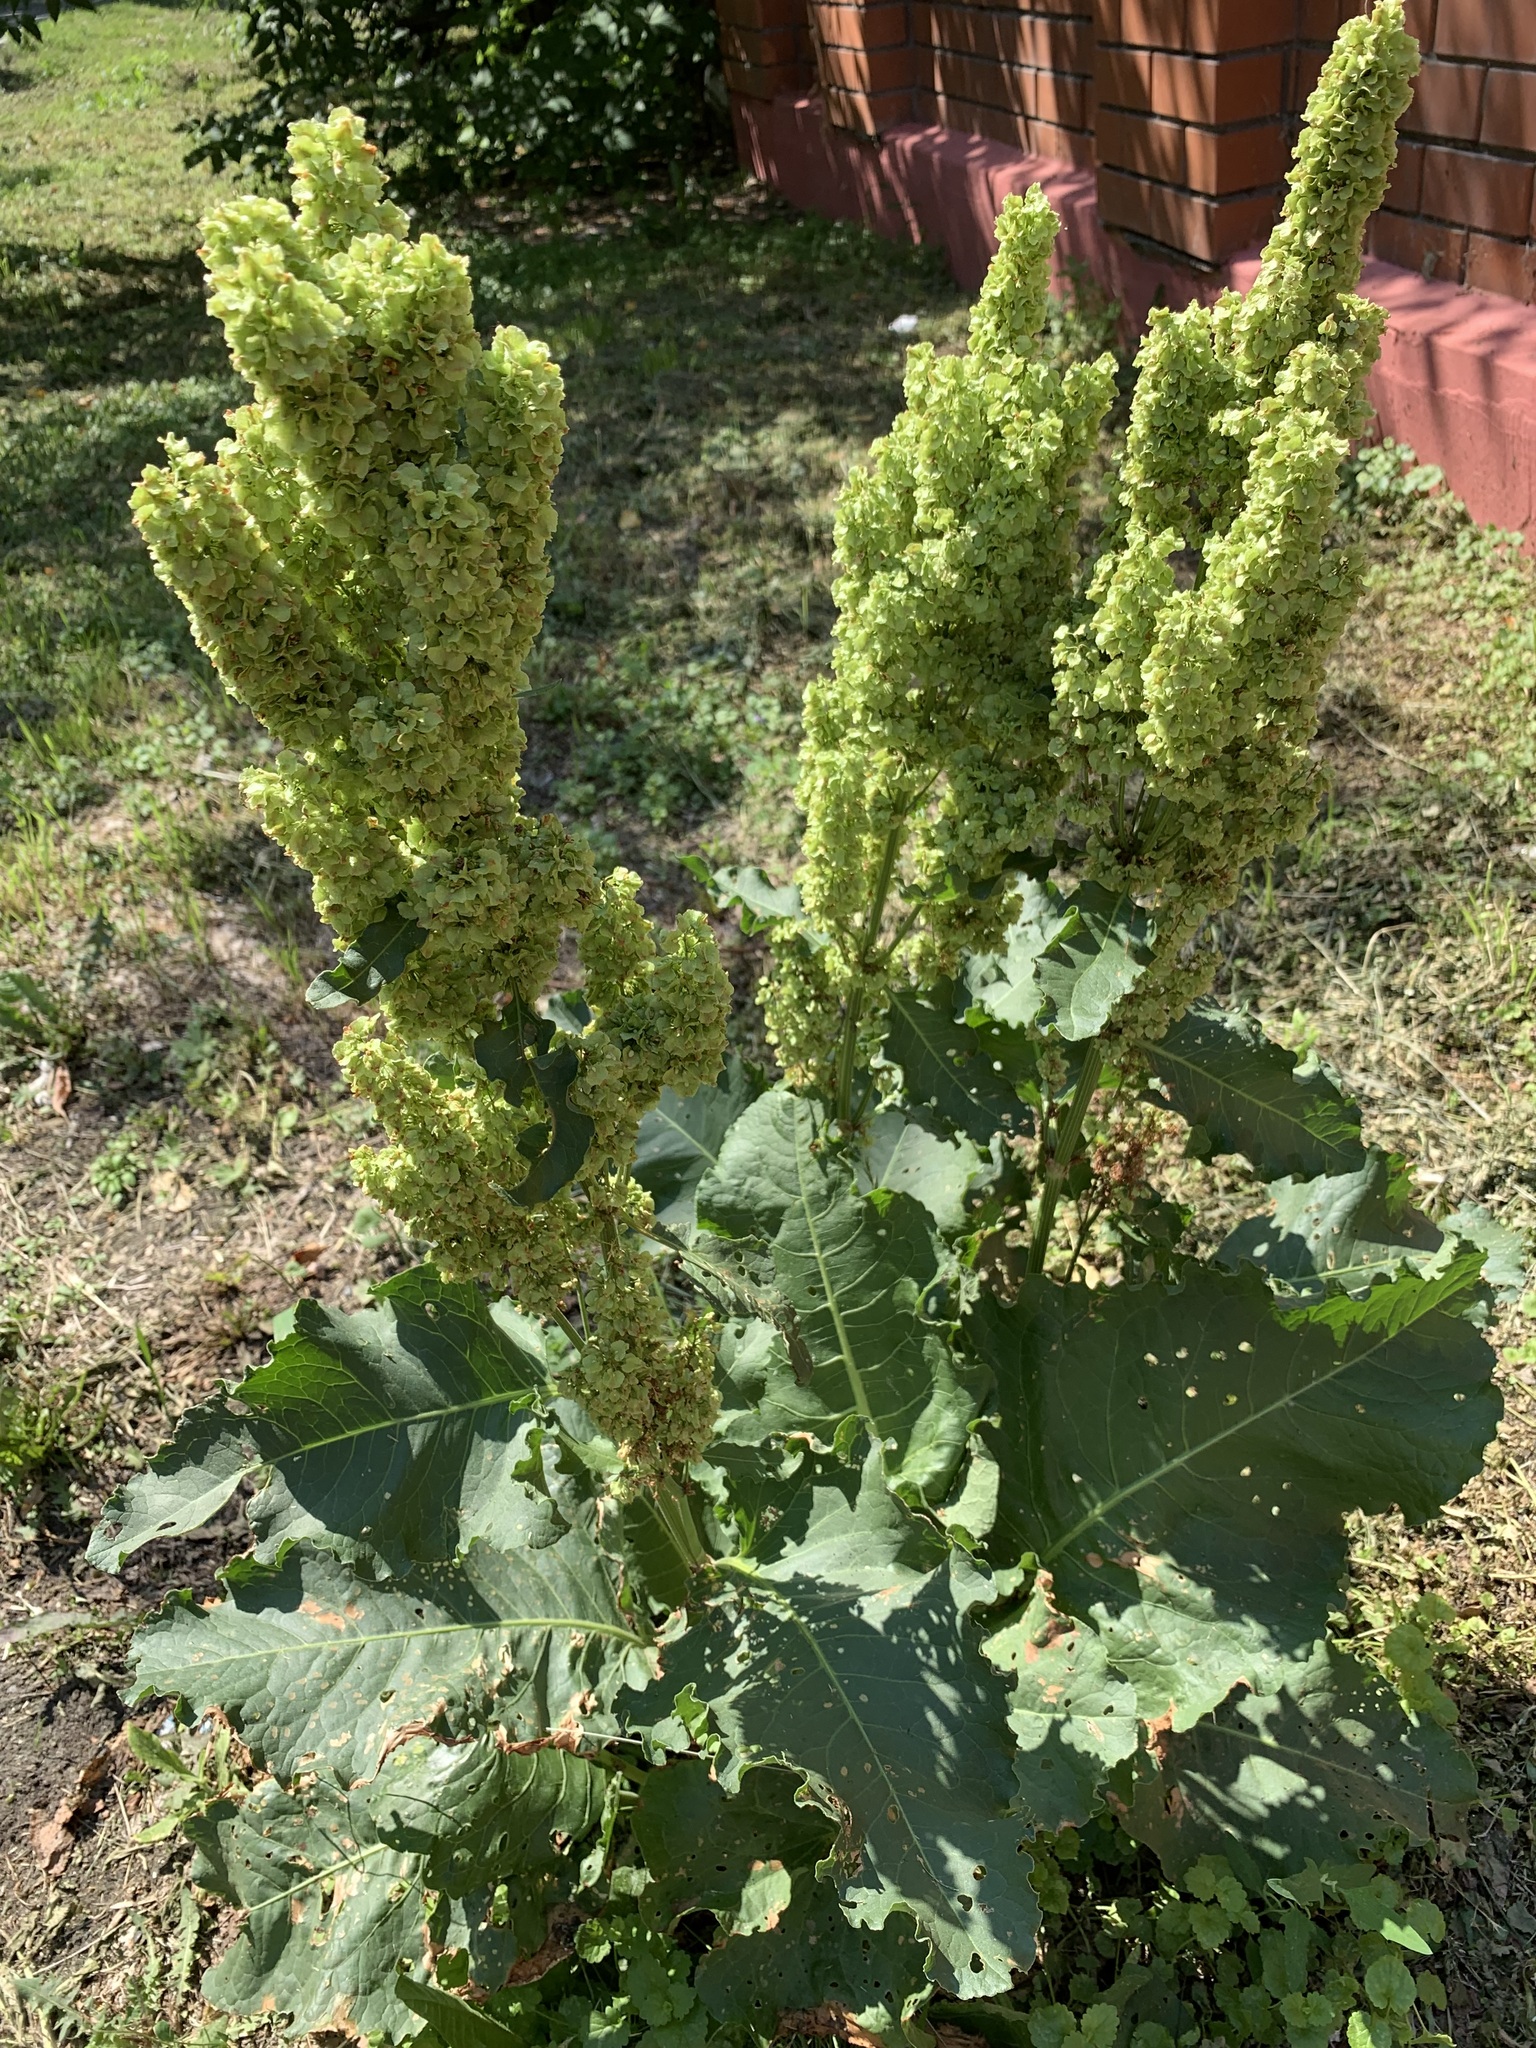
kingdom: Plantae
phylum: Tracheophyta
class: Magnoliopsida
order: Caryophyllales
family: Polygonaceae
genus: Rumex
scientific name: Rumex confertus
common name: Russian dock
